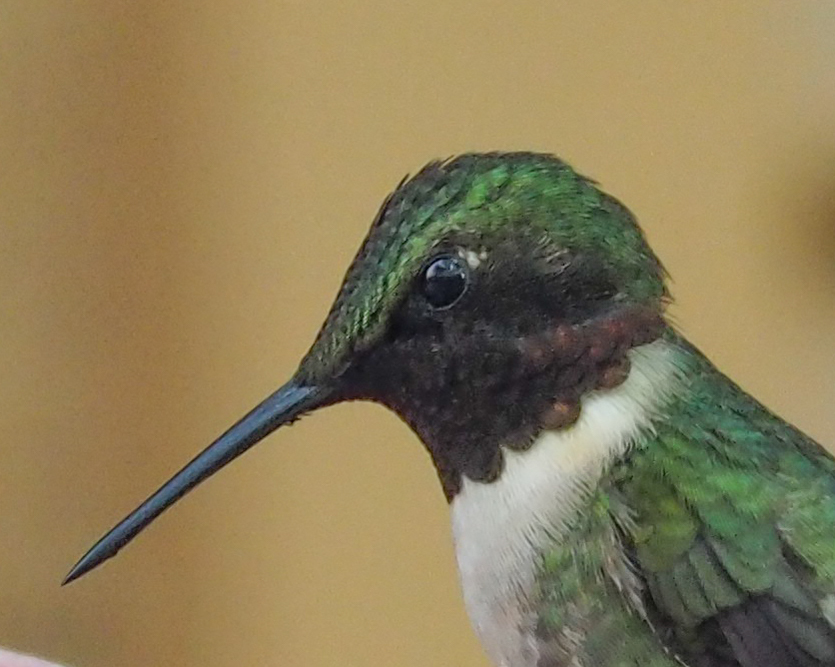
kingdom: Animalia
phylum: Chordata
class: Aves
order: Apodiformes
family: Trochilidae
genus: Archilochus
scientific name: Archilochus colubris
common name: Ruby-throated hummingbird
